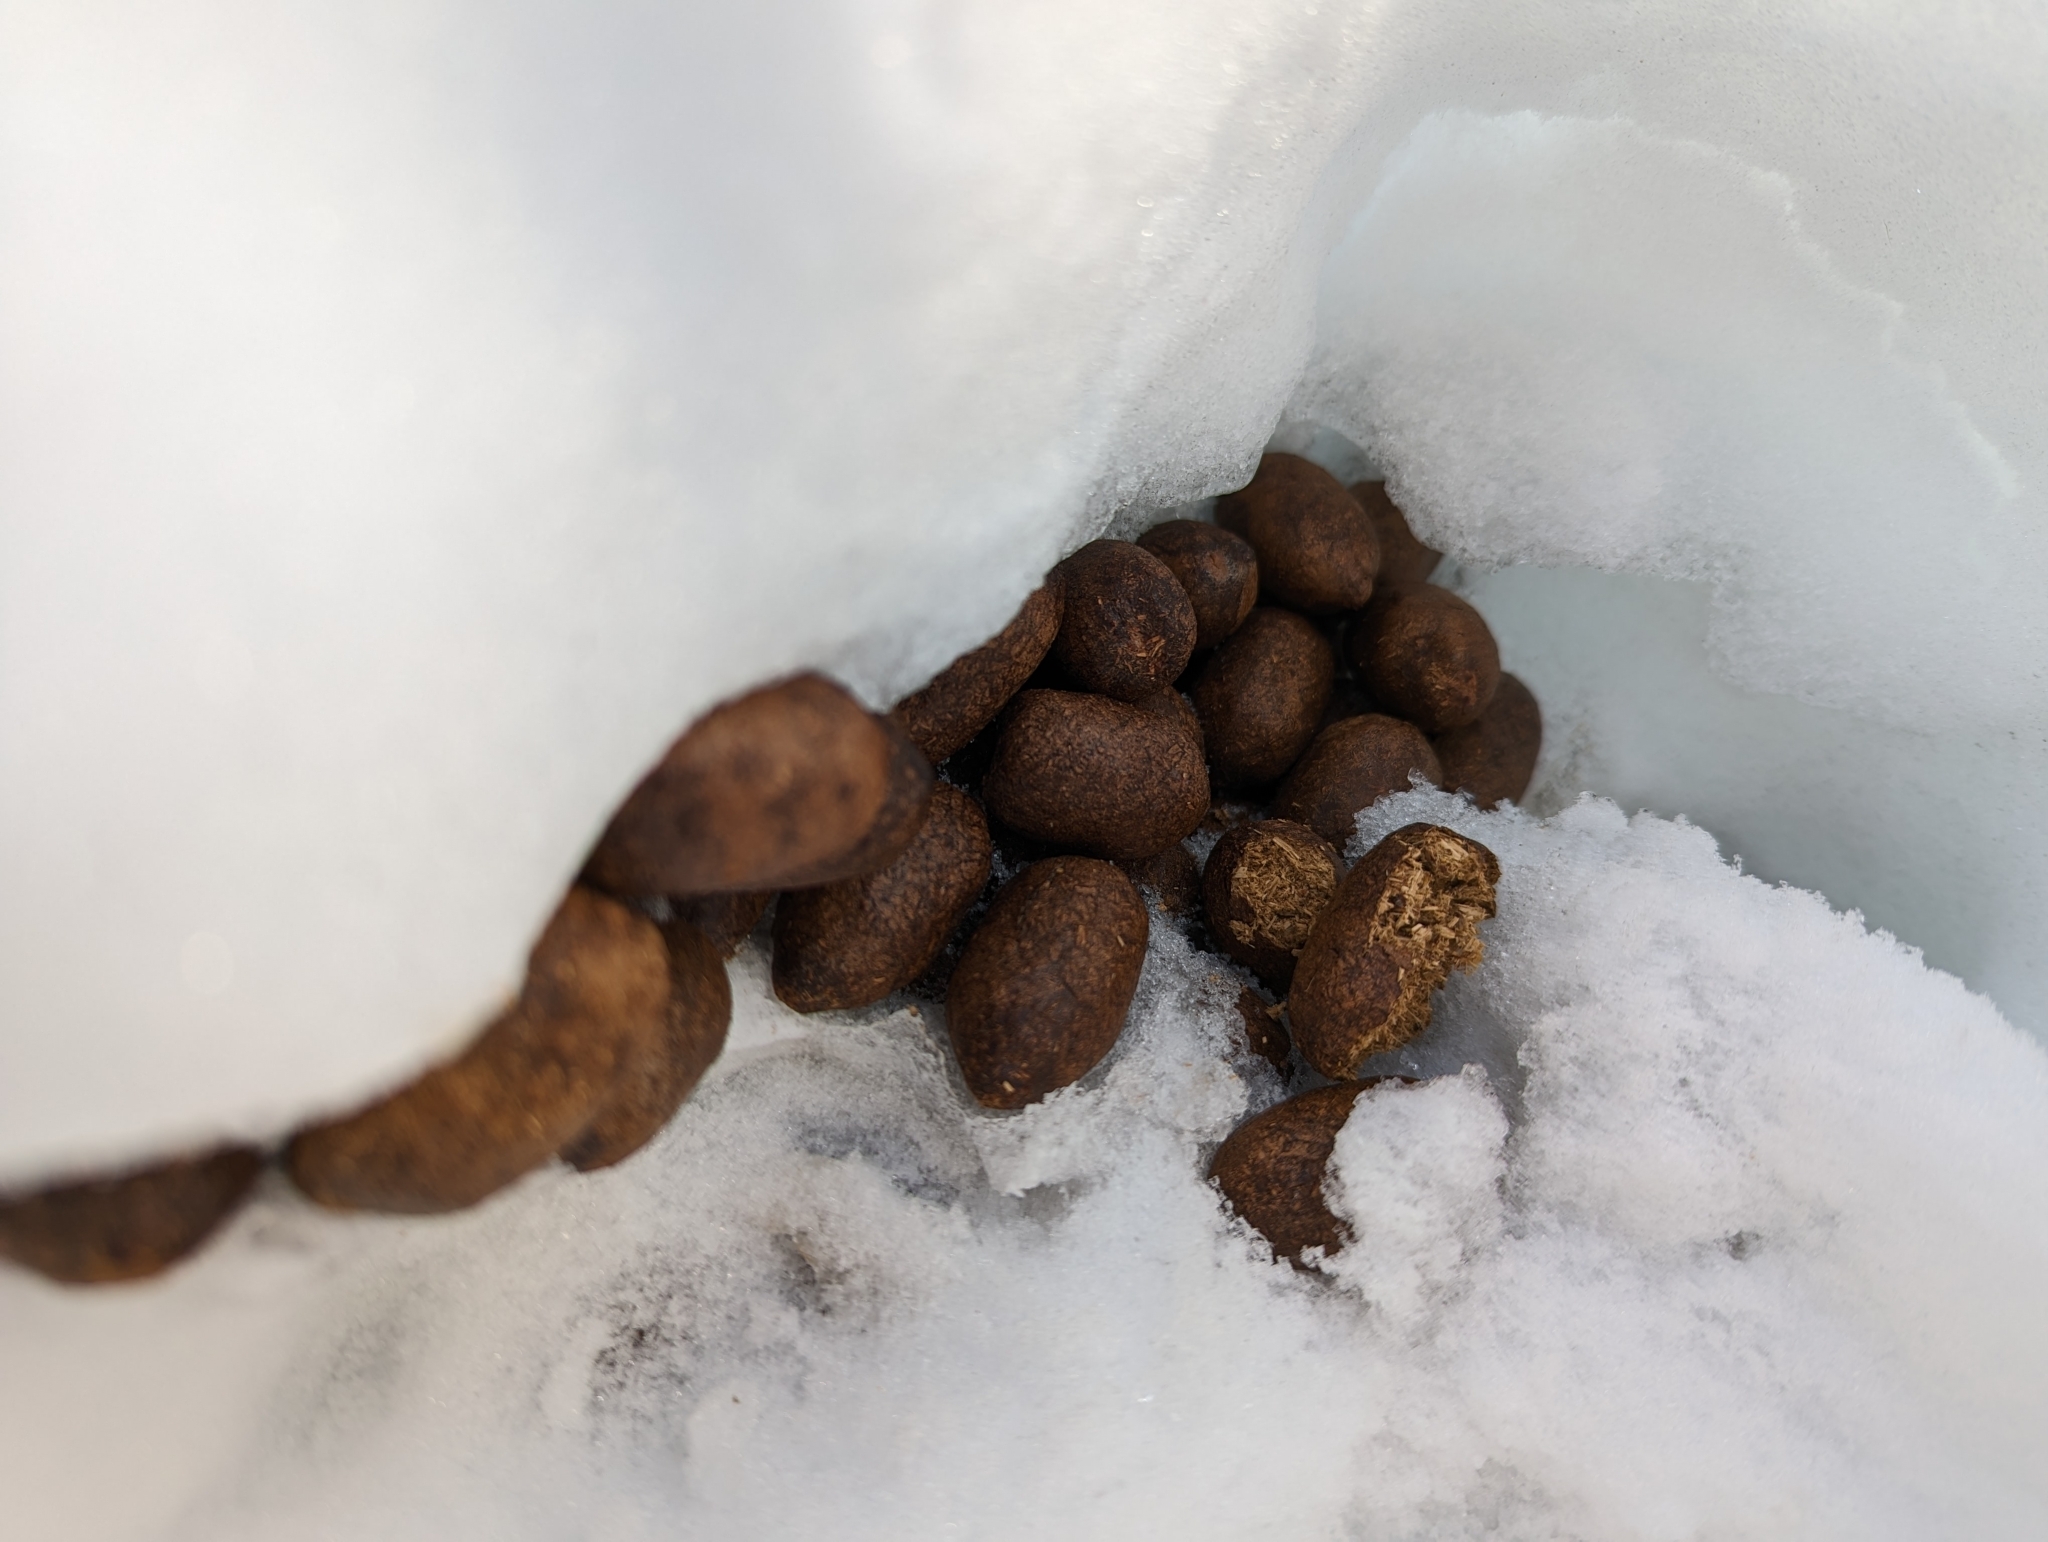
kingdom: Animalia
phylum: Chordata
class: Mammalia
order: Artiodactyla
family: Cervidae
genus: Alces
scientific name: Alces alces
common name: Moose
